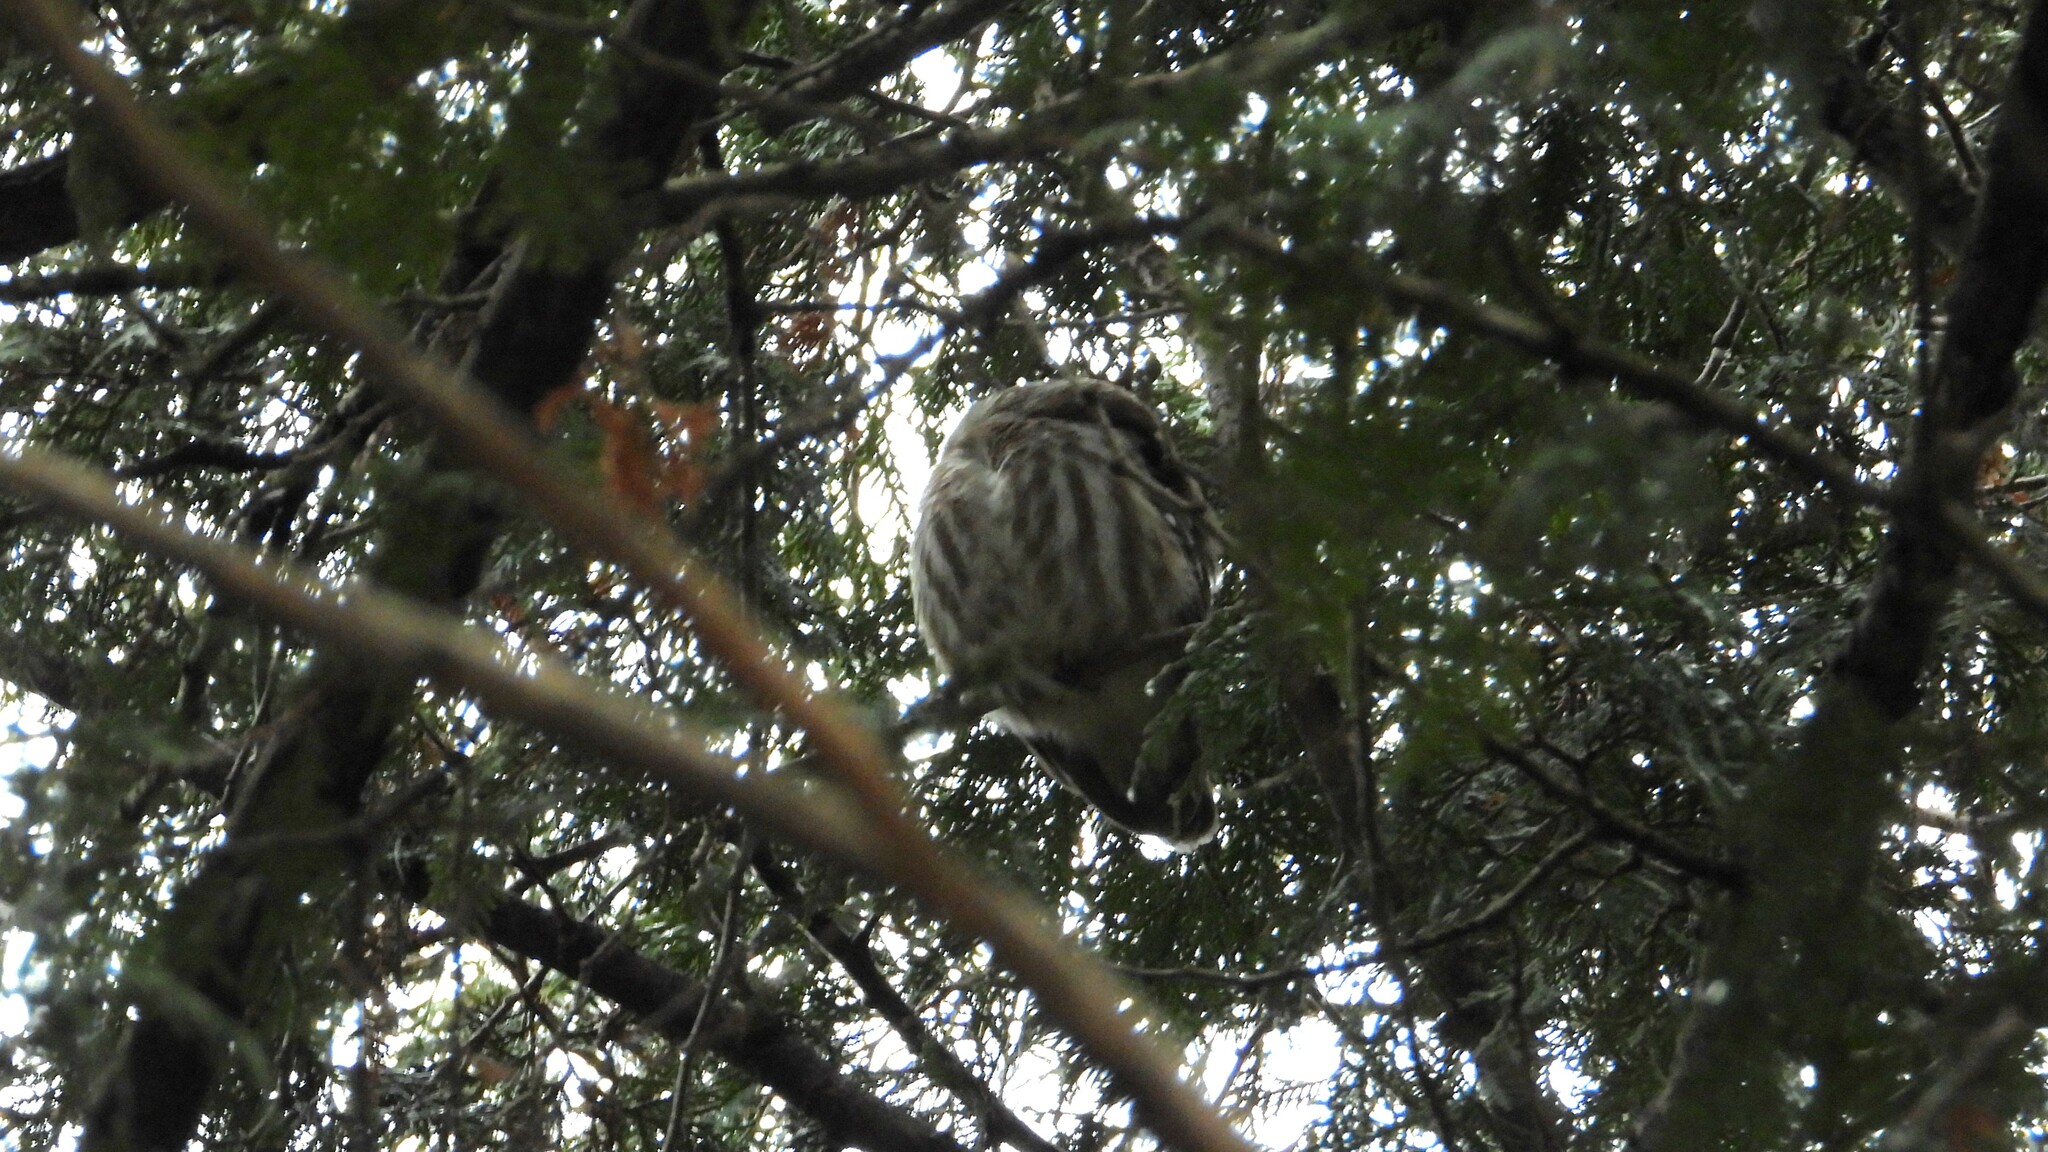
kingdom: Animalia
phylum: Chordata
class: Aves
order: Strigiformes
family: Strigidae
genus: Aegolius
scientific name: Aegolius acadicus
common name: Northern saw-whet owl
